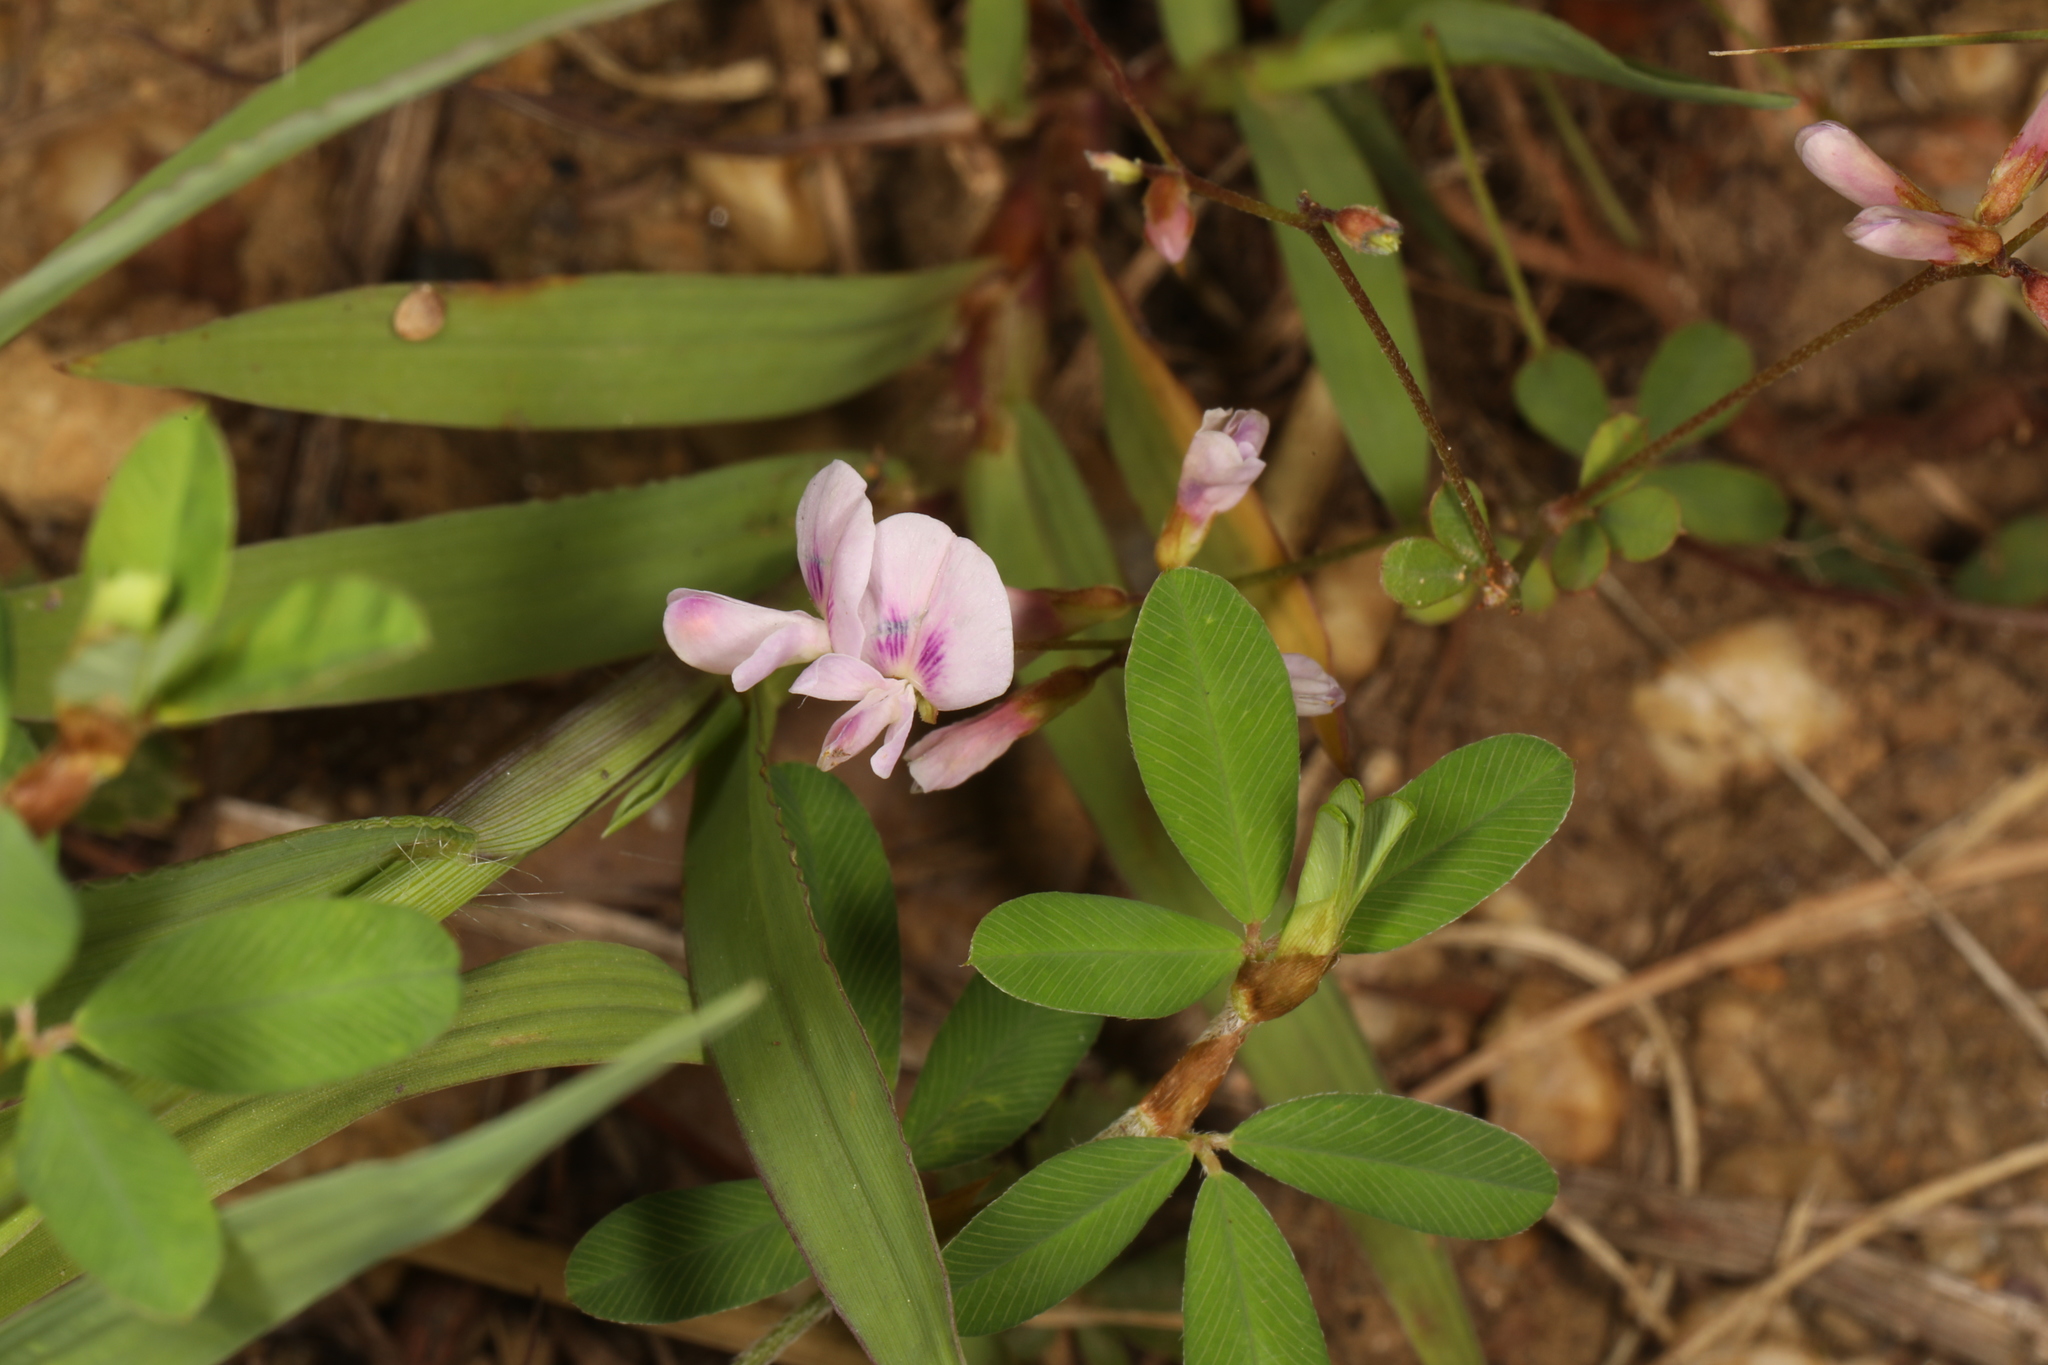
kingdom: Plantae
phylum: Tracheophyta
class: Magnoliopsida
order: Fabales
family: Fabaceae
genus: Lespedeza
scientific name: Lespedeza repens
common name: Creeping bush-clover
